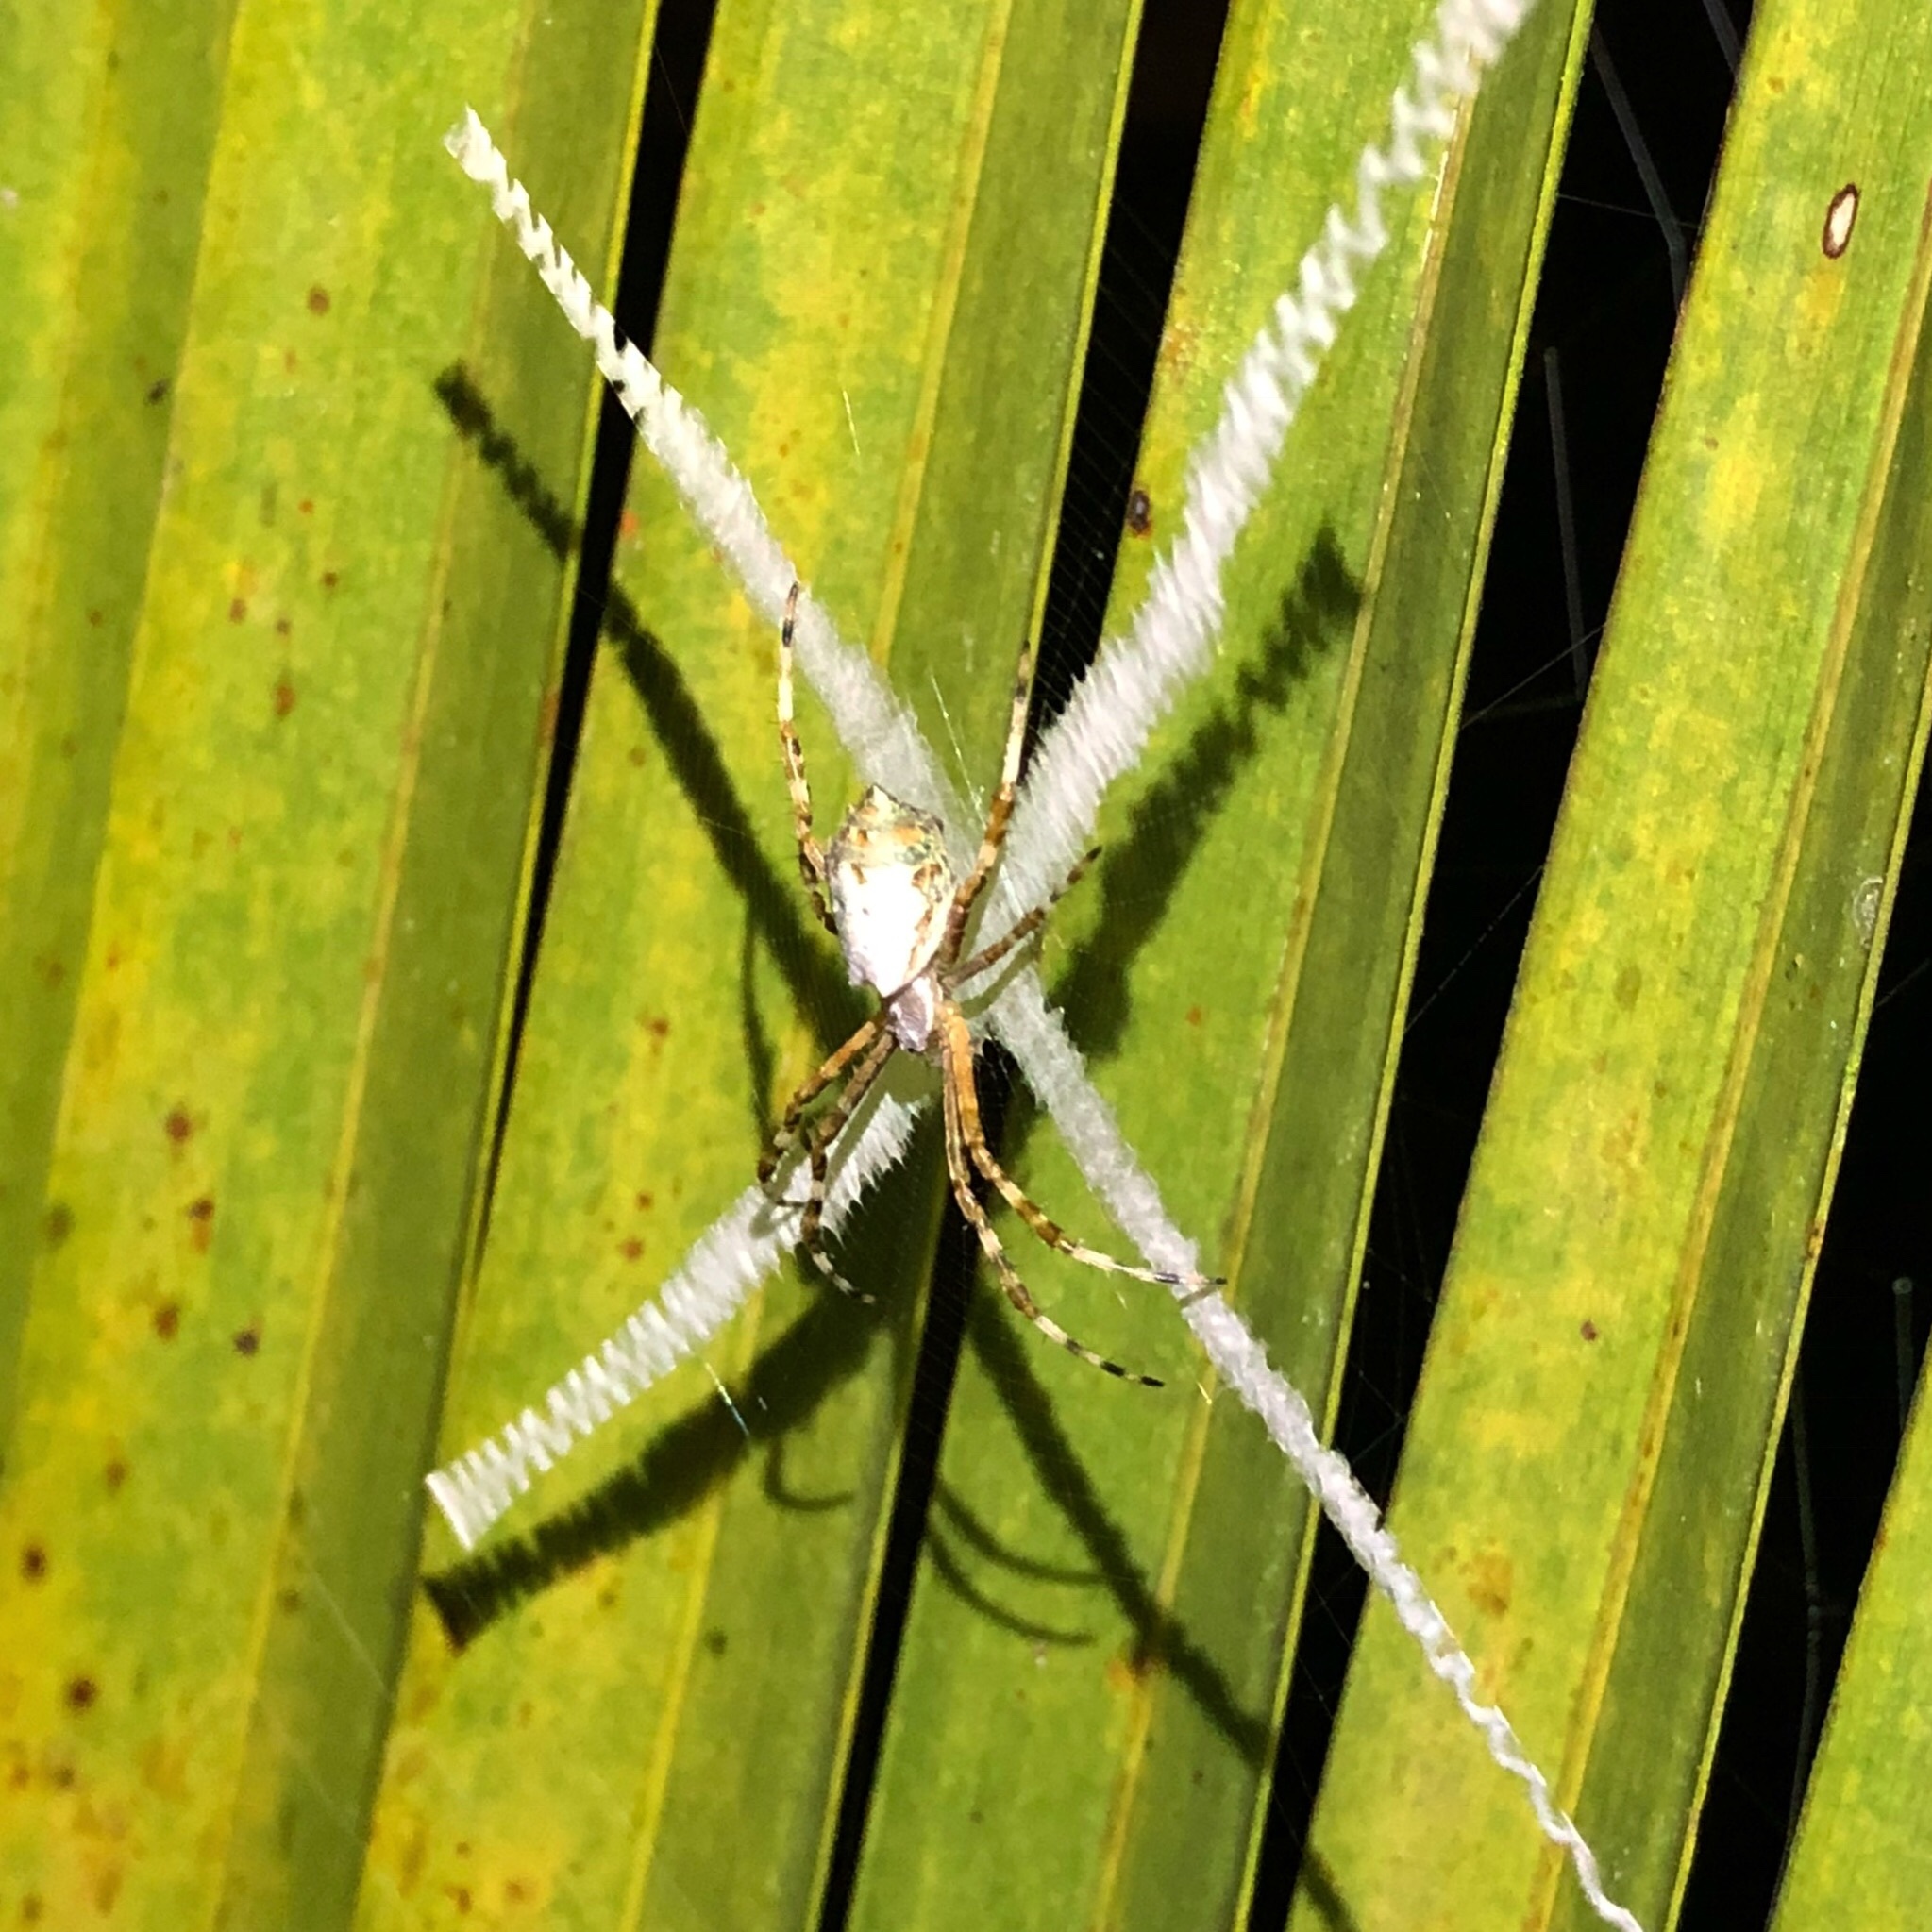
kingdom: Animalia
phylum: Arthropoda
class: Arachnida
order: Araneae
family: Araneidae
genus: Argiope
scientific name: Argiope submaronica
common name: Orb weavers
